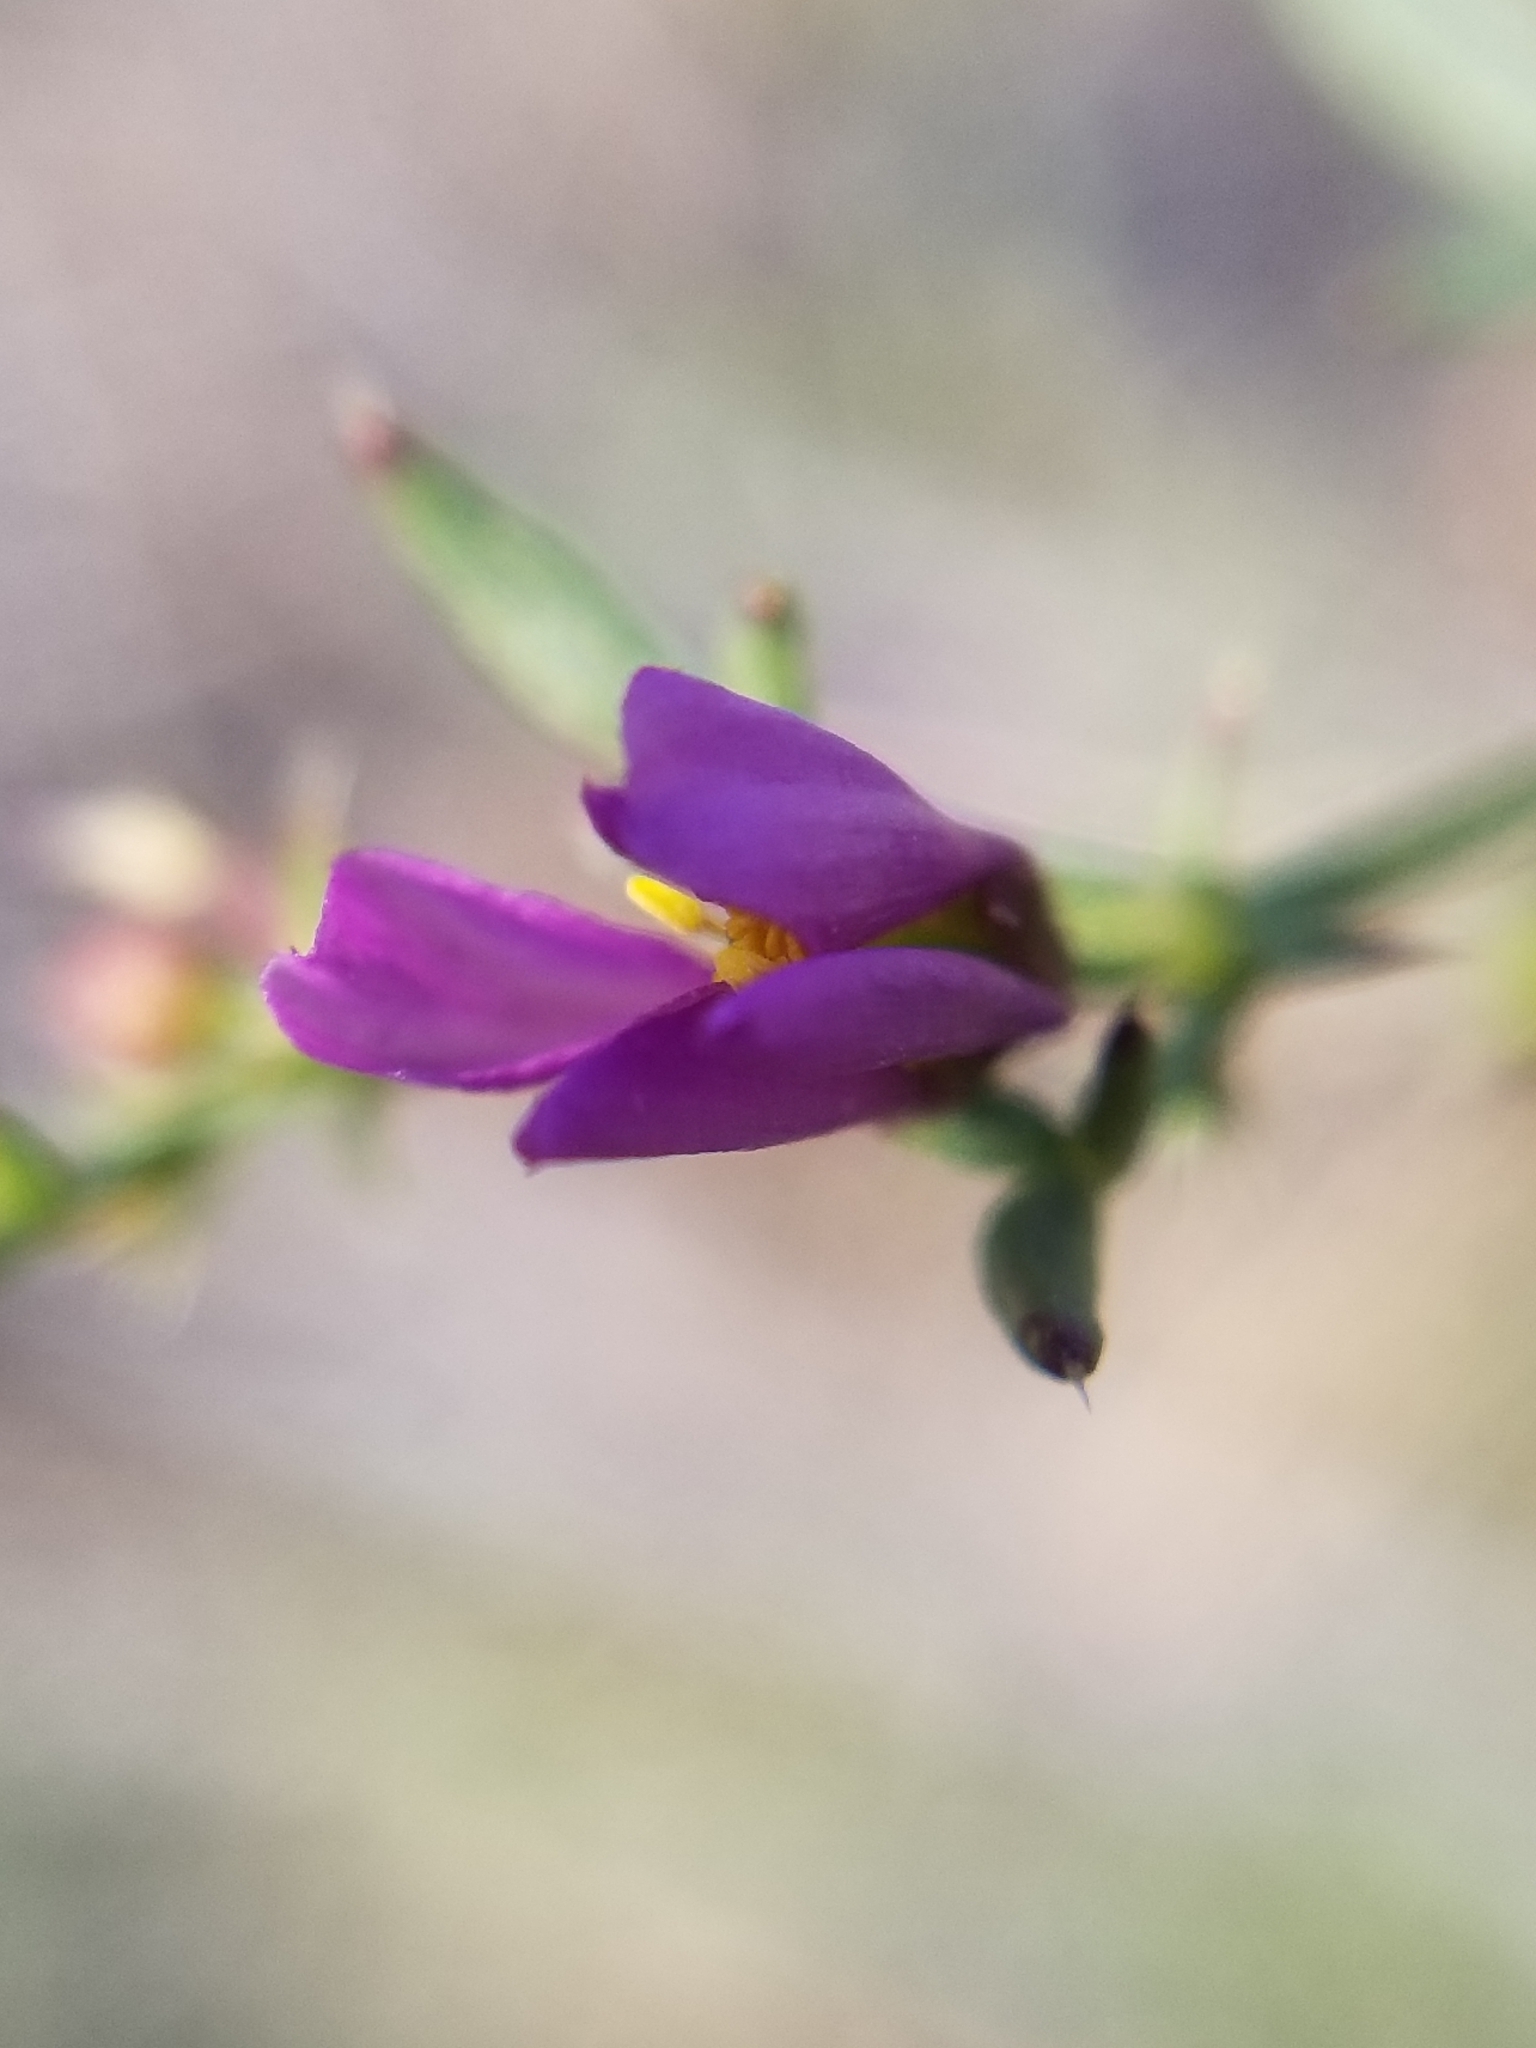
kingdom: Plantae
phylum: Tracheophyta
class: Magnoliopsida
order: Zygophyllales
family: Zygophyllaceae
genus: Fagonia
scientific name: Fagonia laevis
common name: California fagonbush
